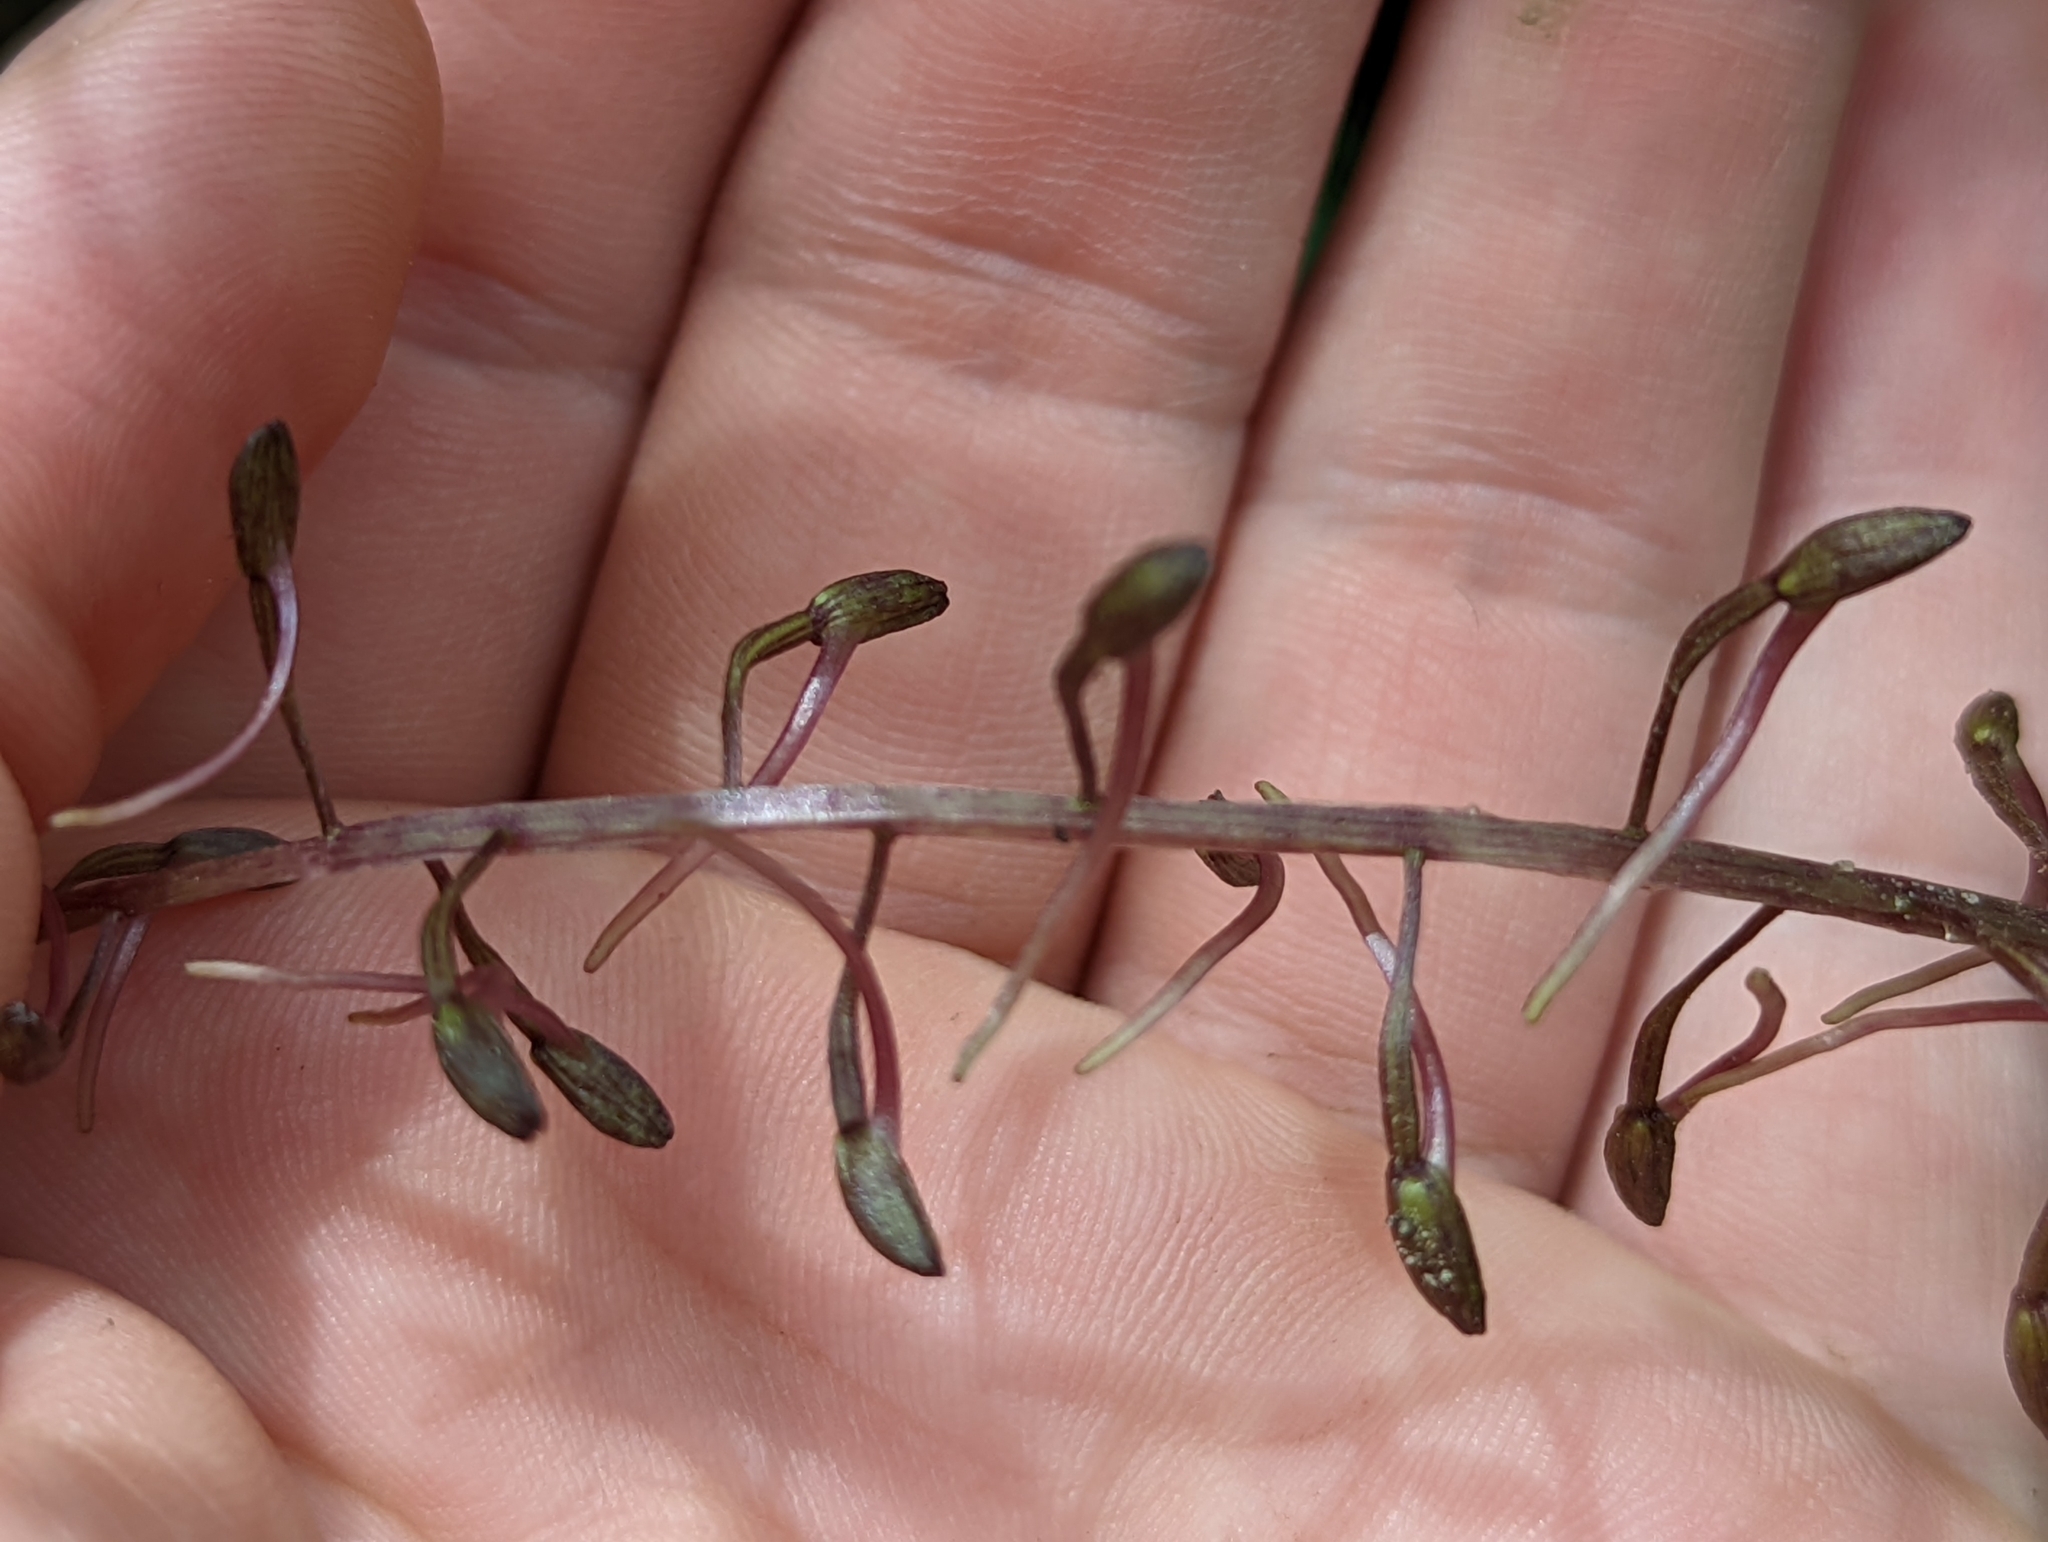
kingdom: Plantae
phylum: Tracheophyta
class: Liliopsida
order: Asparagales
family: Orchidaceae
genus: Tipularia
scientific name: Tipularia discolor
